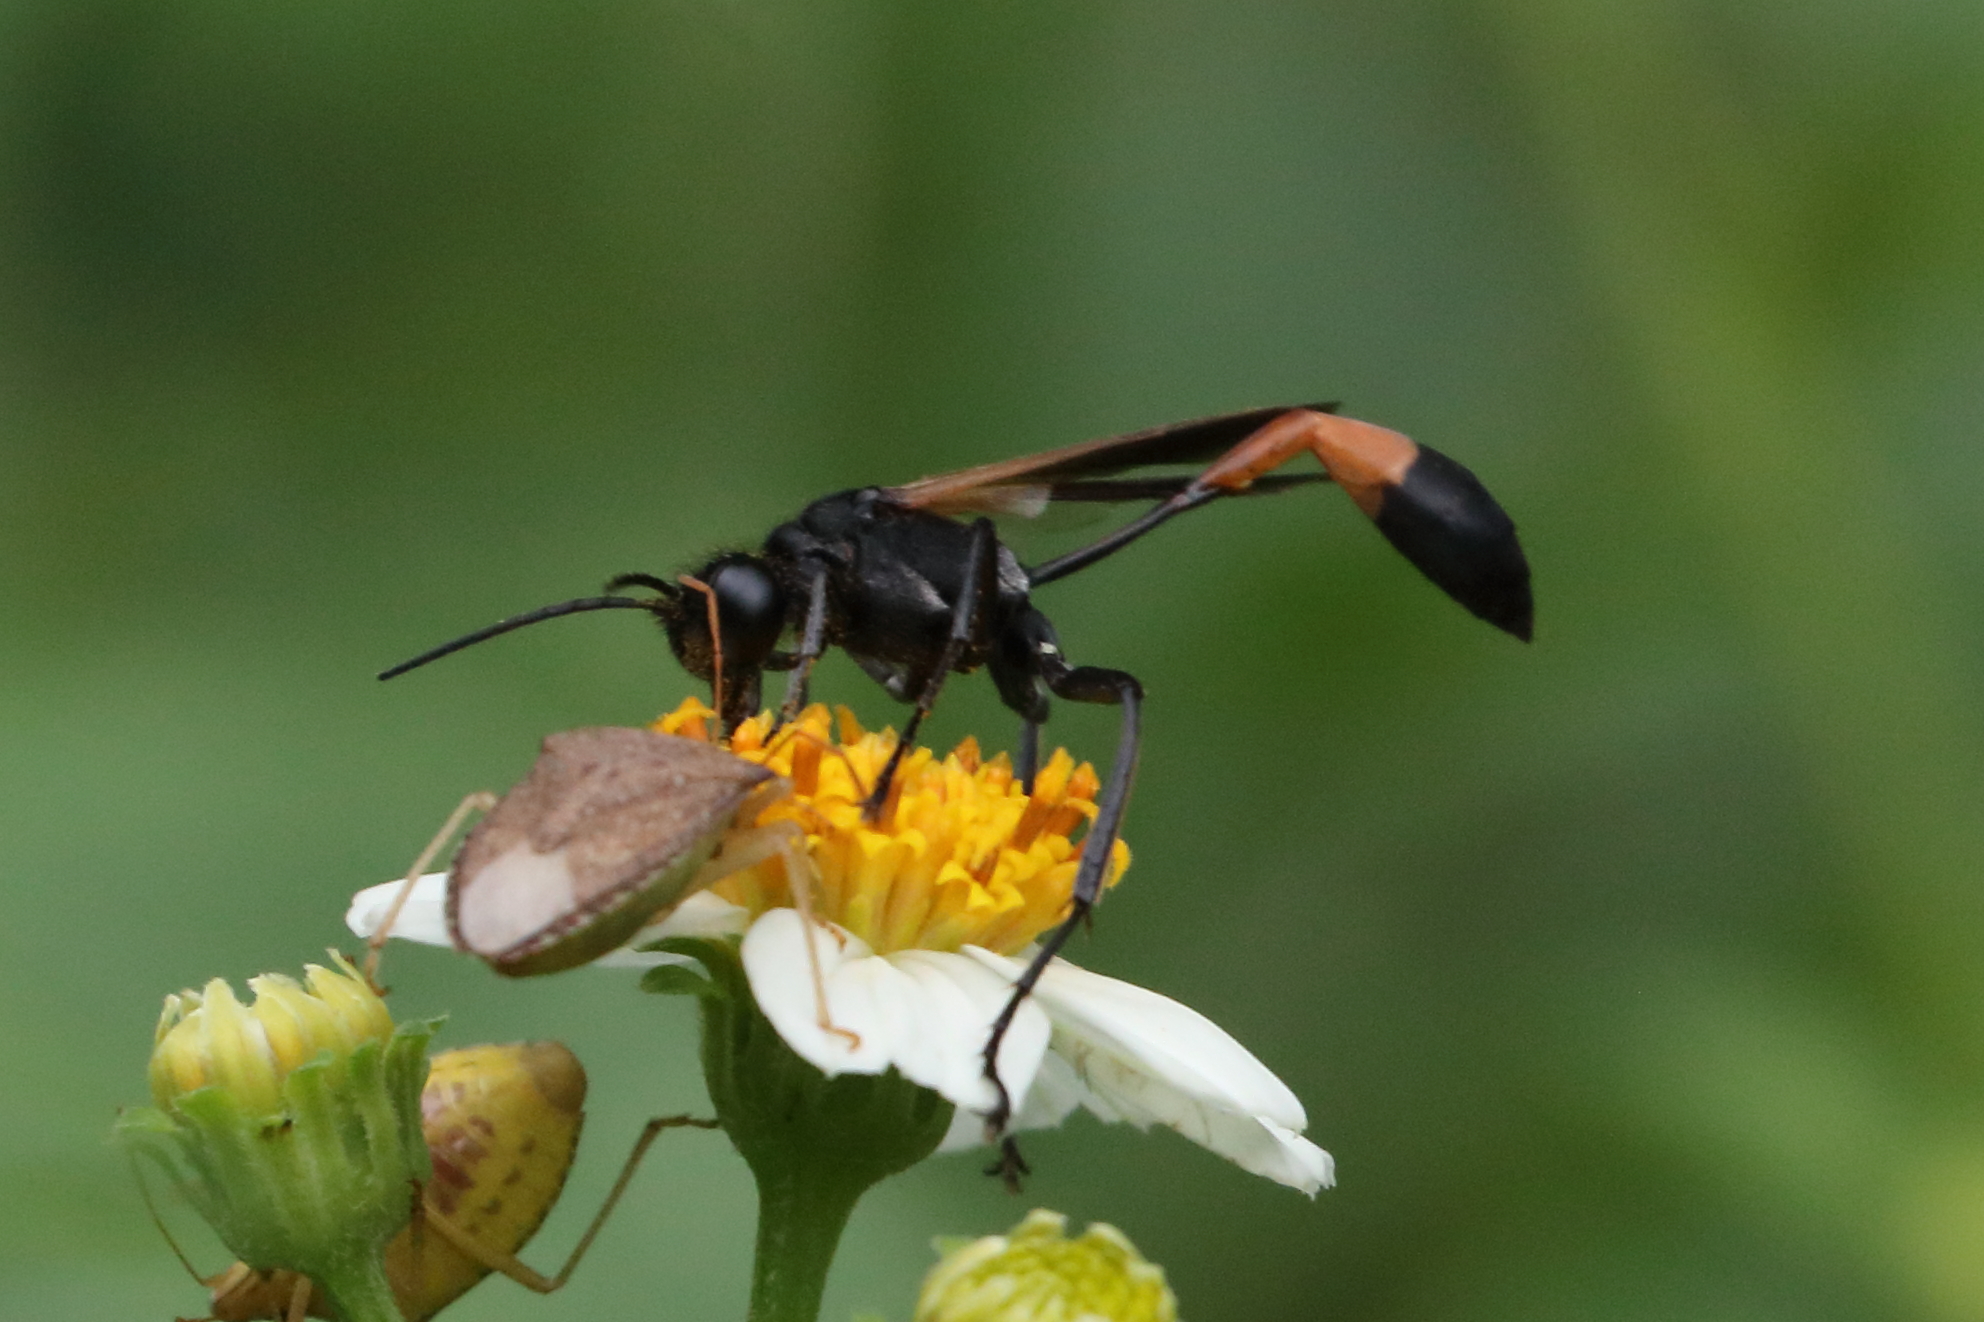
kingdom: Animalia
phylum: Arthropoda
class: Insecta
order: Hymenoptera
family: Sphecidae
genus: Ammophila
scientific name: Ammophila pictipennis
